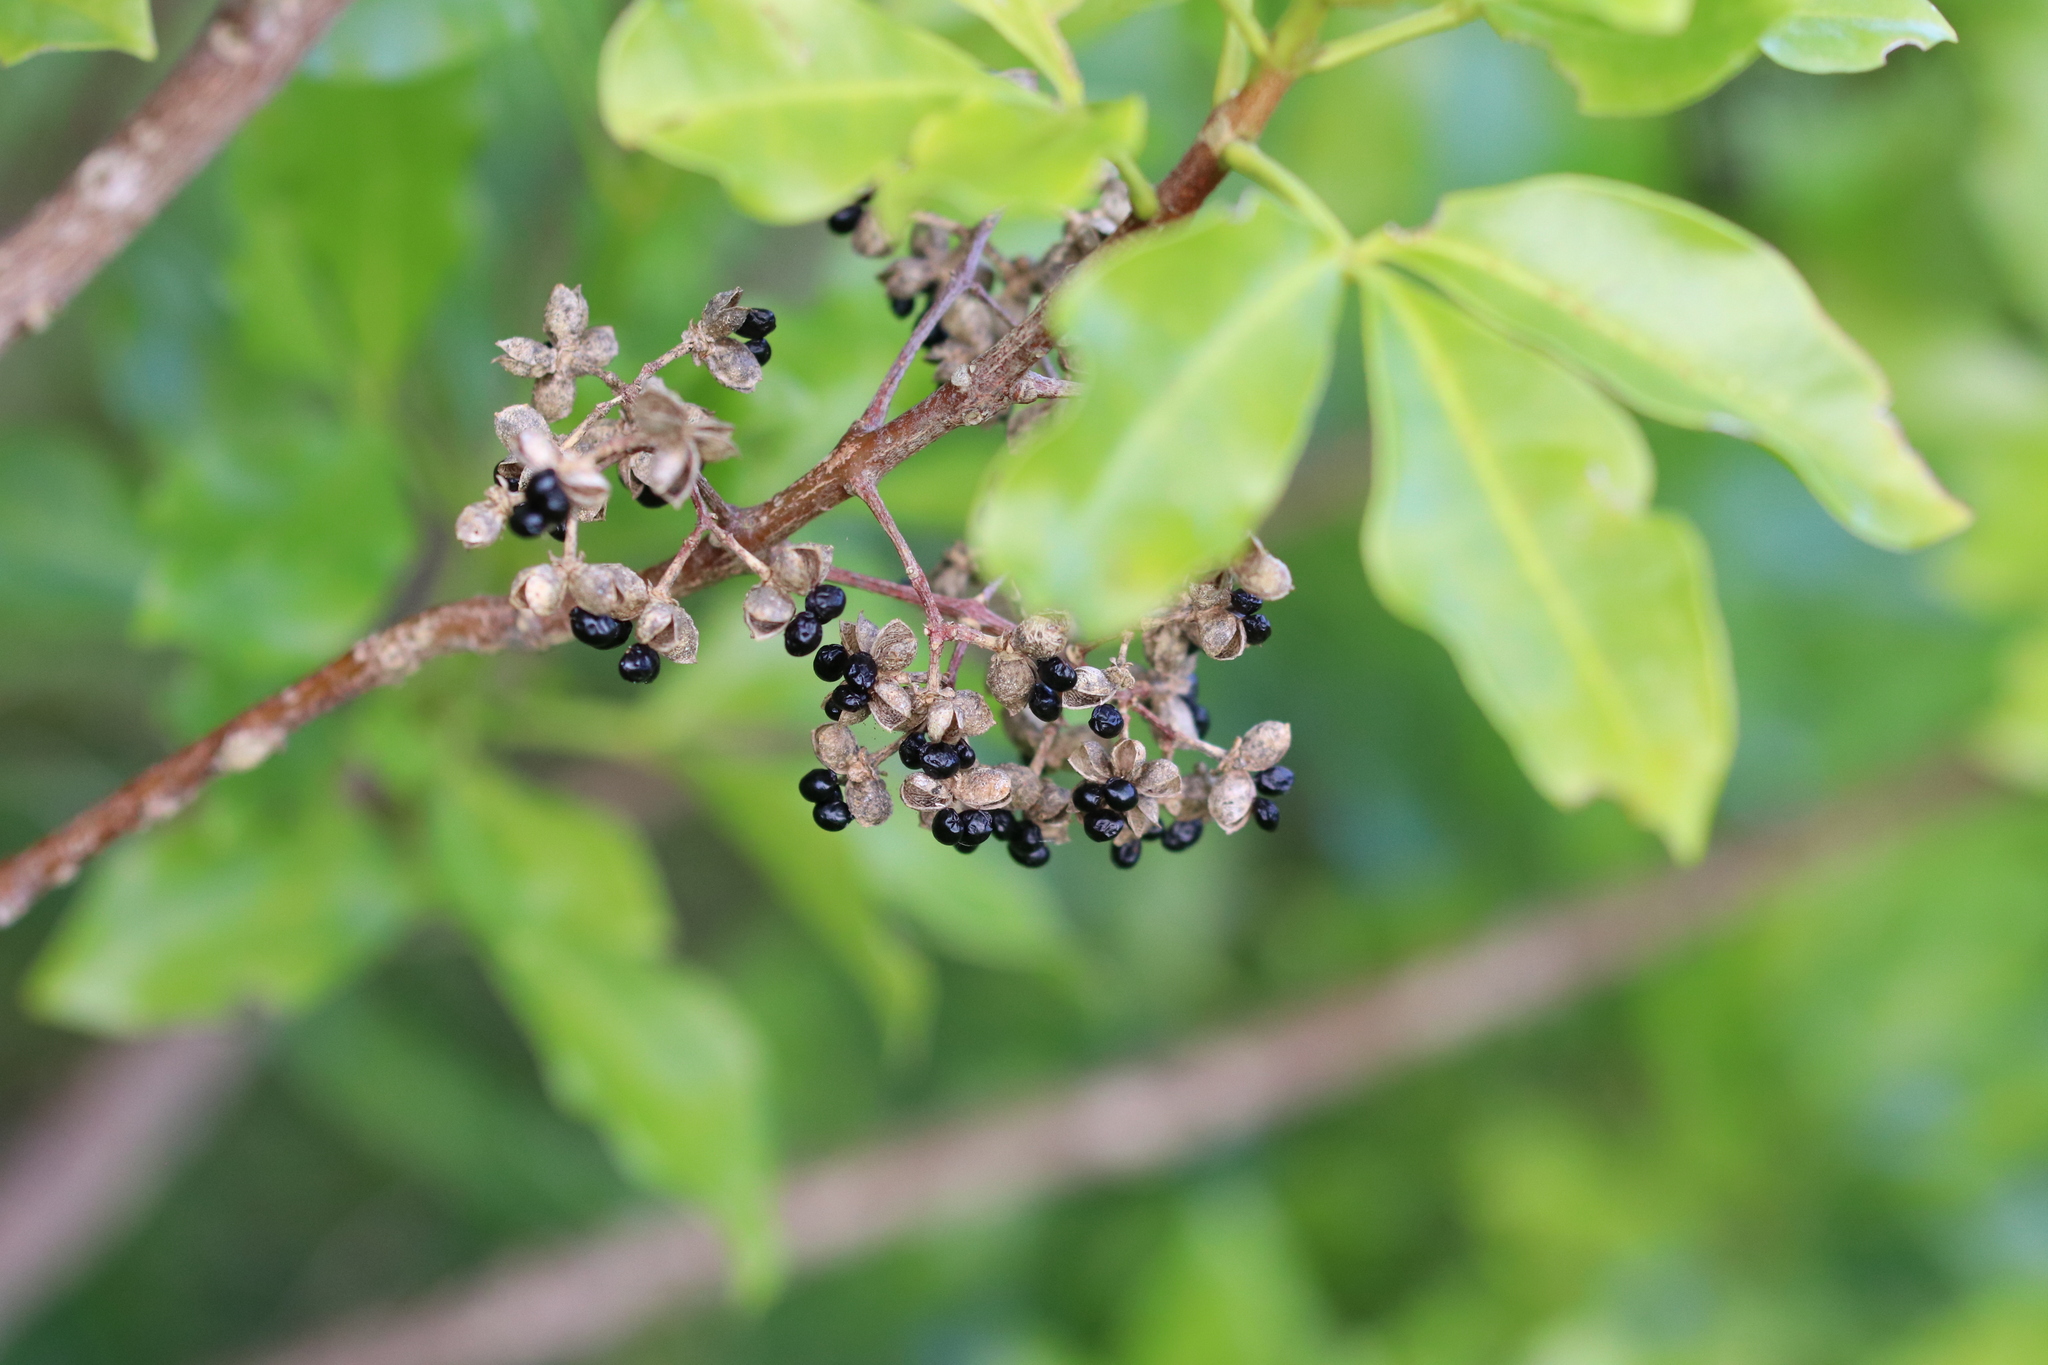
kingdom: Plantae
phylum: Tracheophyta
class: Magnoliopsida
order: Sapindales
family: Rutaceae
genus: Melicope
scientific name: Melicope ternata
